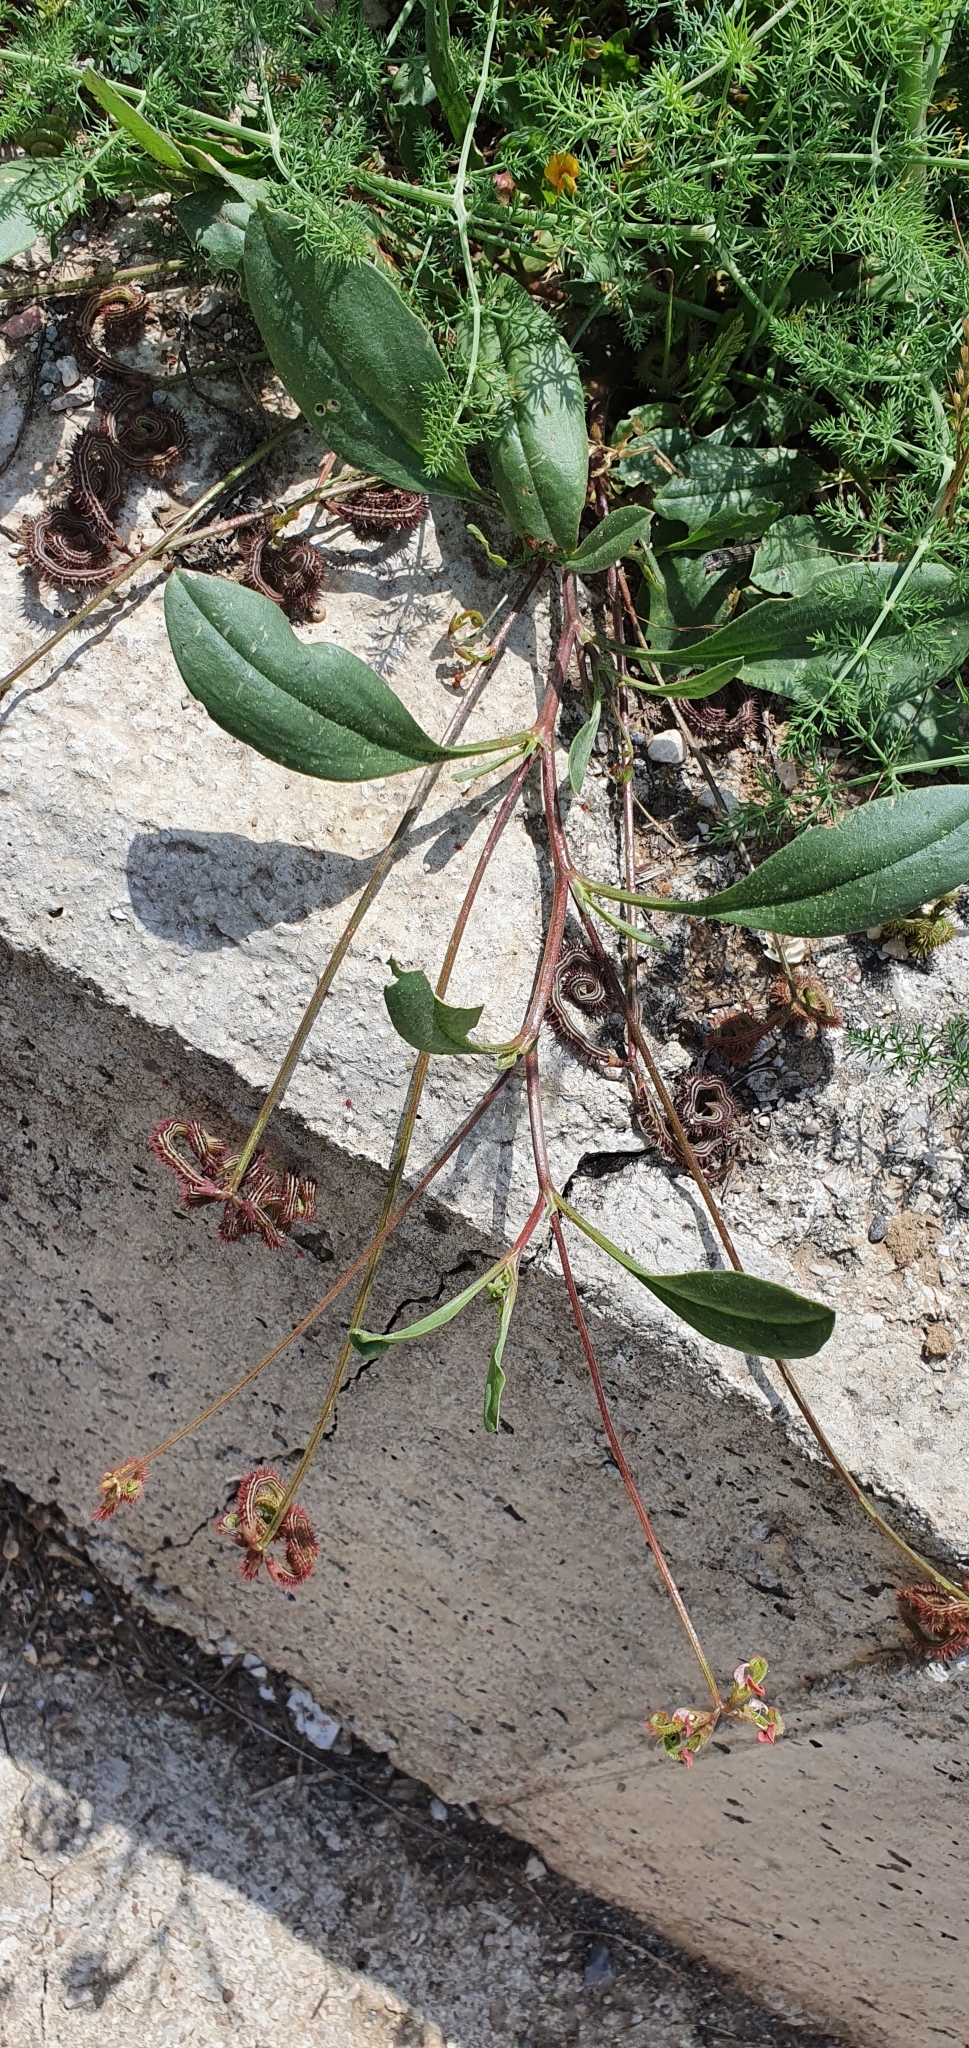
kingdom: Plantae
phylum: Tracheophyta
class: Magnoliopsida
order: Fabales
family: Fabaceae
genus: Scorpiurus
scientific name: Scorpiurus muricatus
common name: Caterpillar-plant
